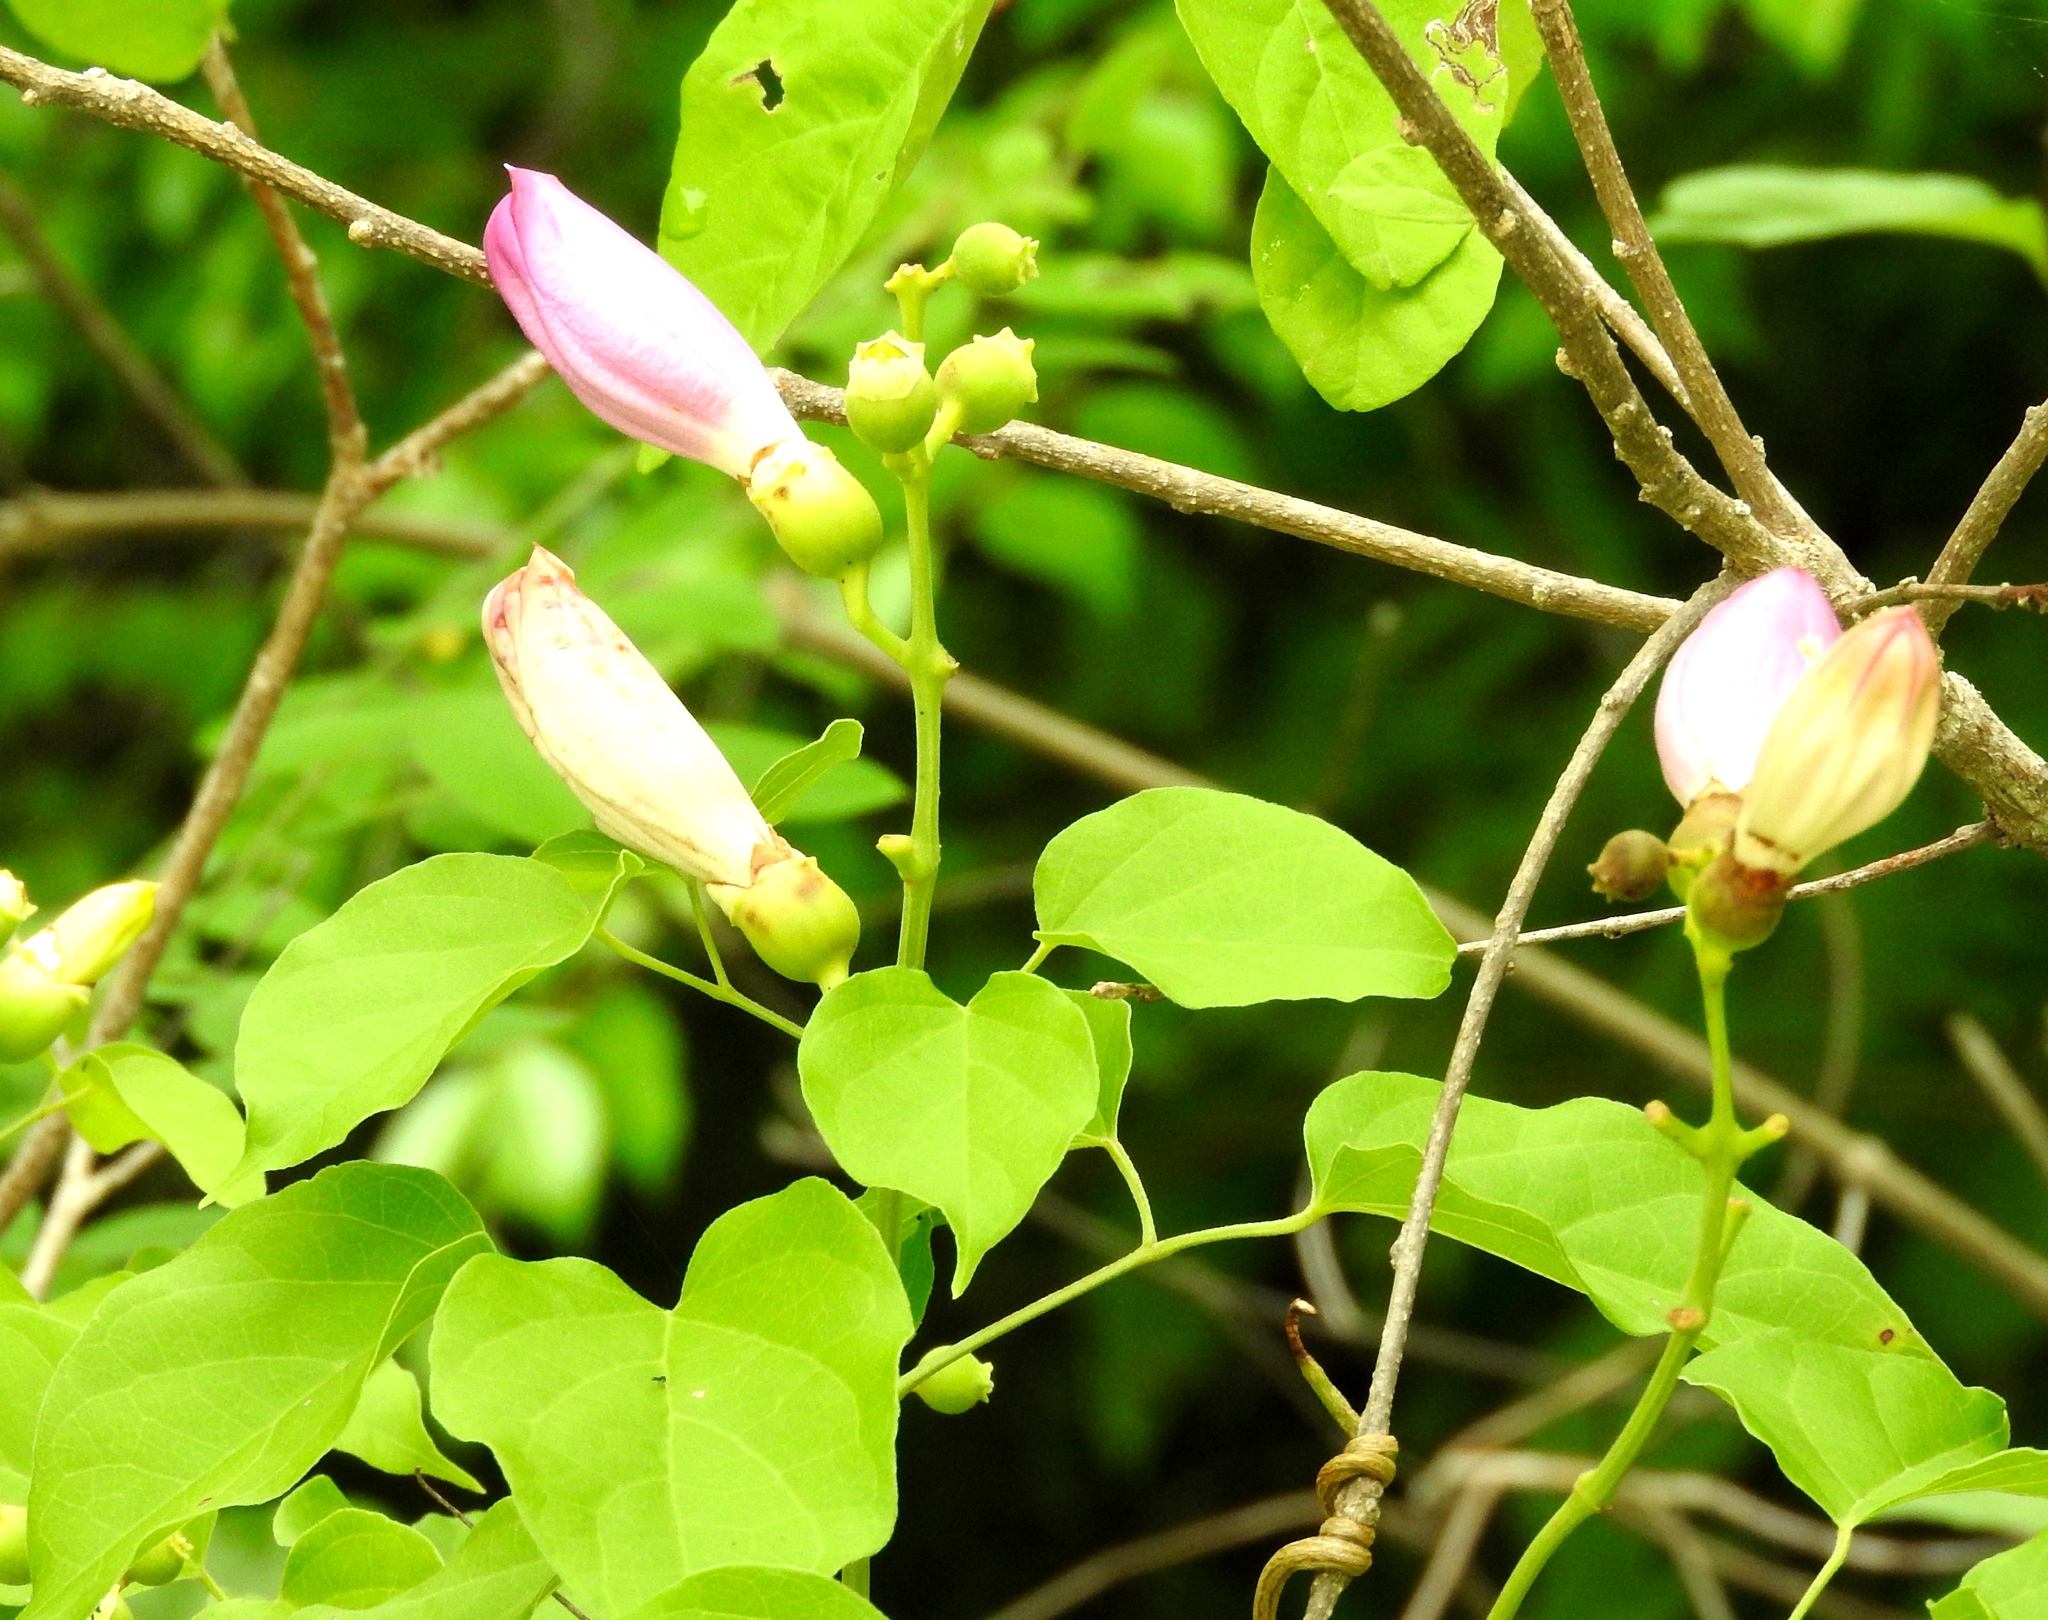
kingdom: Plantae
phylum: Tracheophyta
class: Magnoliopsida
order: Lamiales
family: Bignoniaceae
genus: Amphilophium
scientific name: Amphilophium paniculatum
